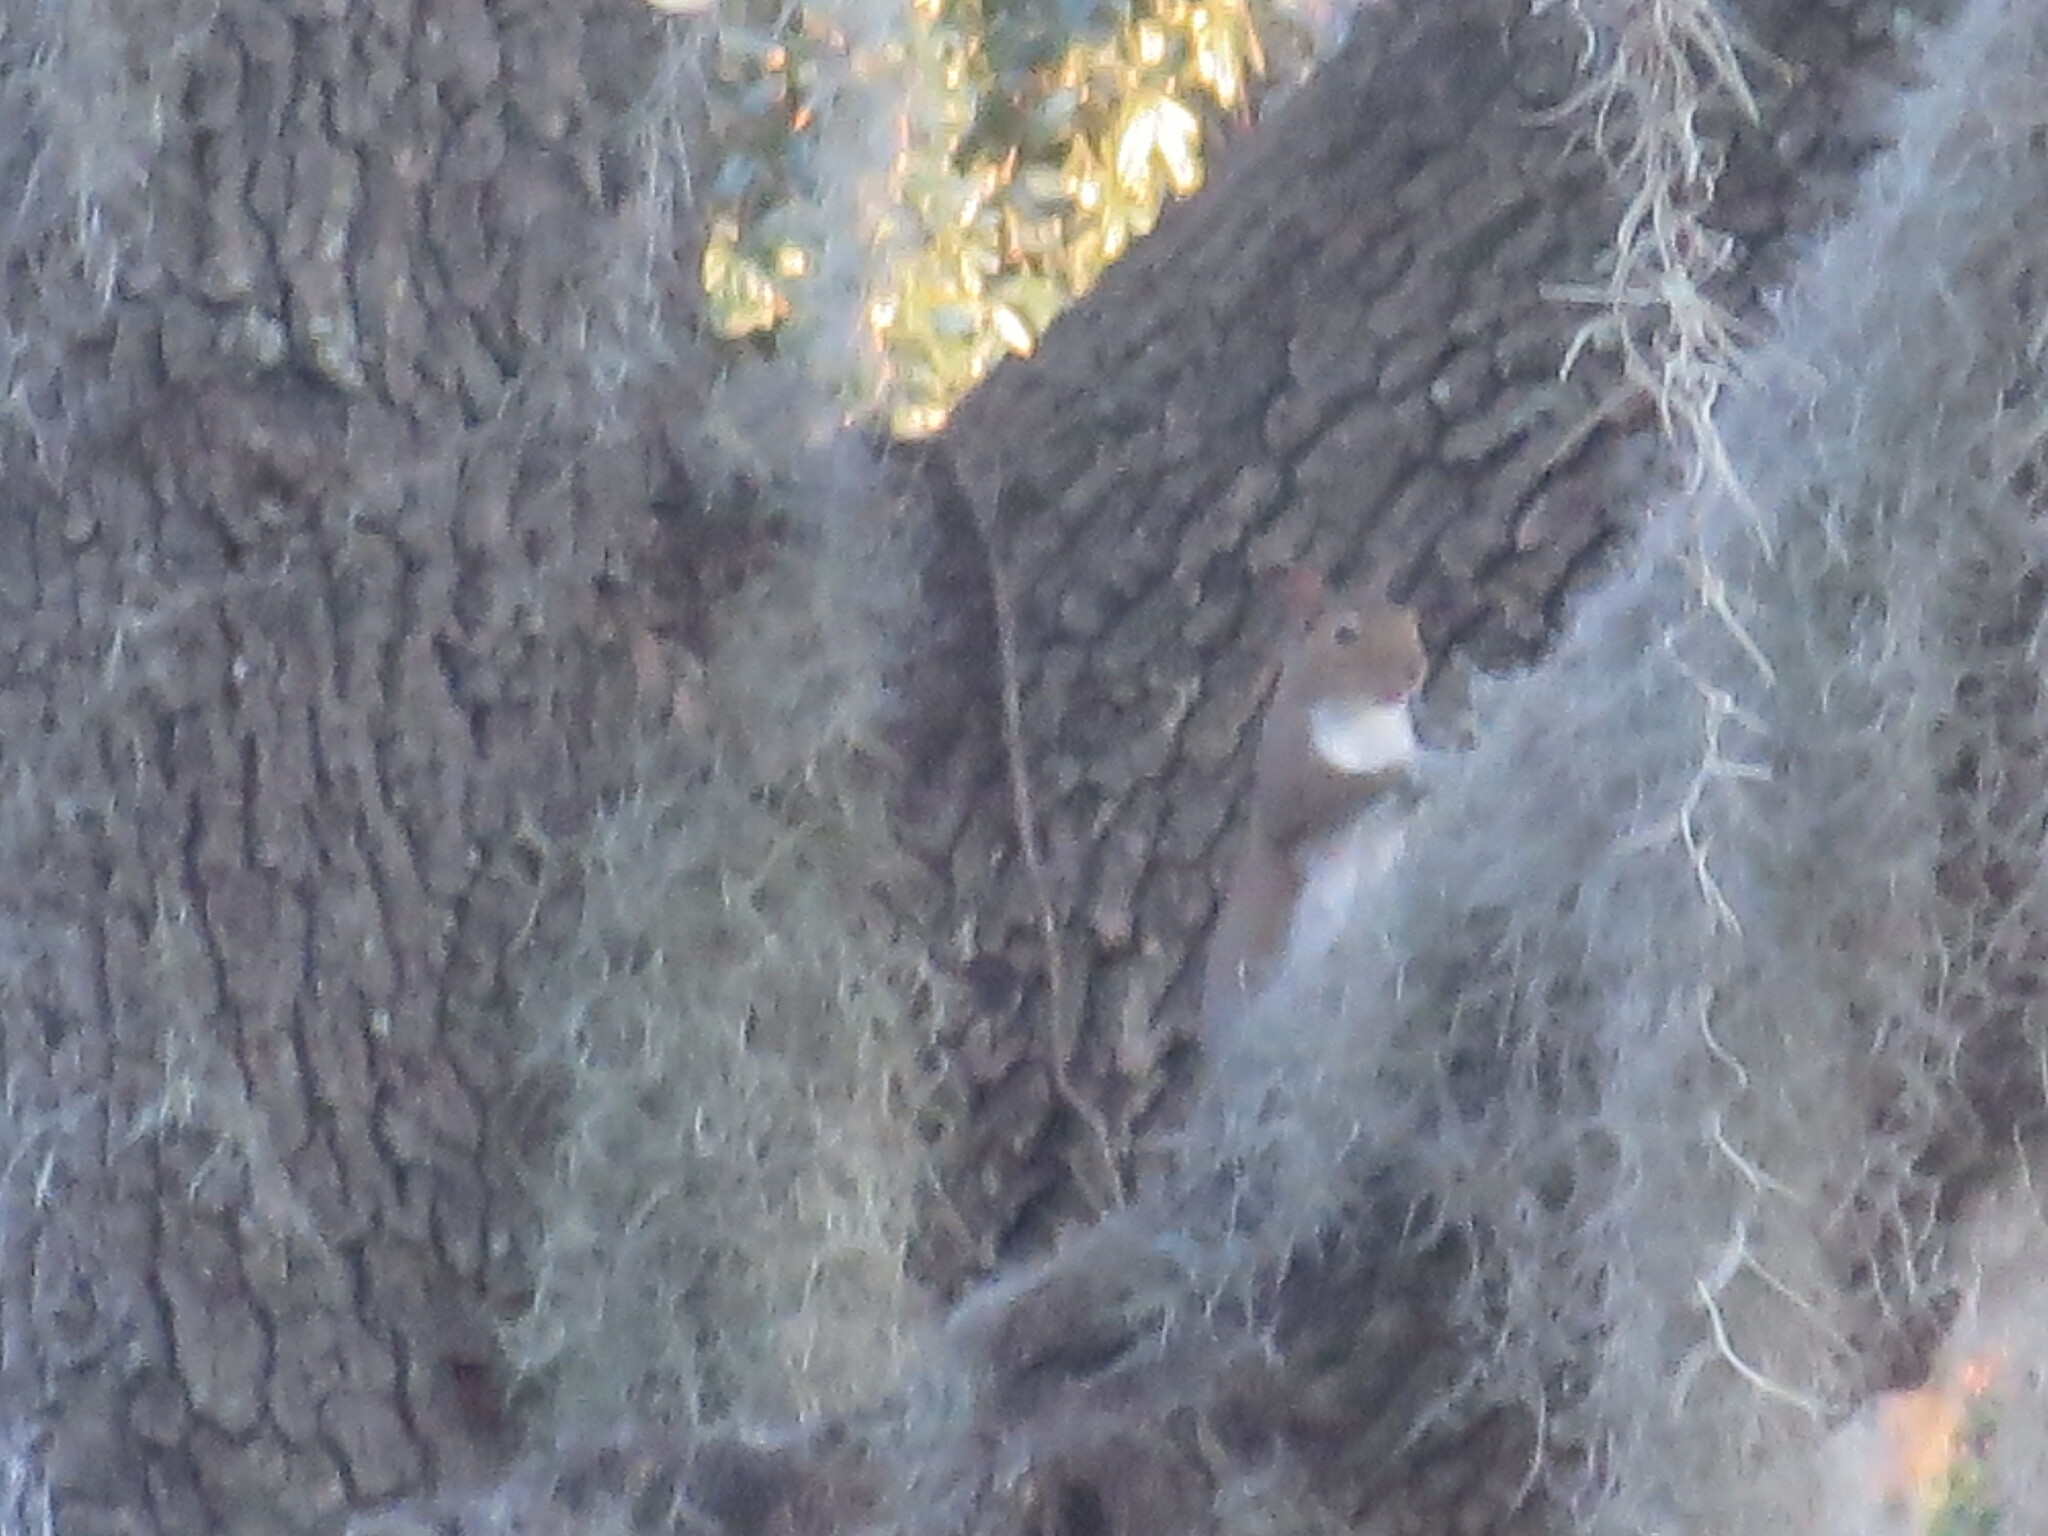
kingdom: Animalia
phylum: Chordata
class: Mammalia
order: Rodentia
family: Sciuridae
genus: Sciurus
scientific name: Sciurus carolinensis
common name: Eastern gray squirrel
